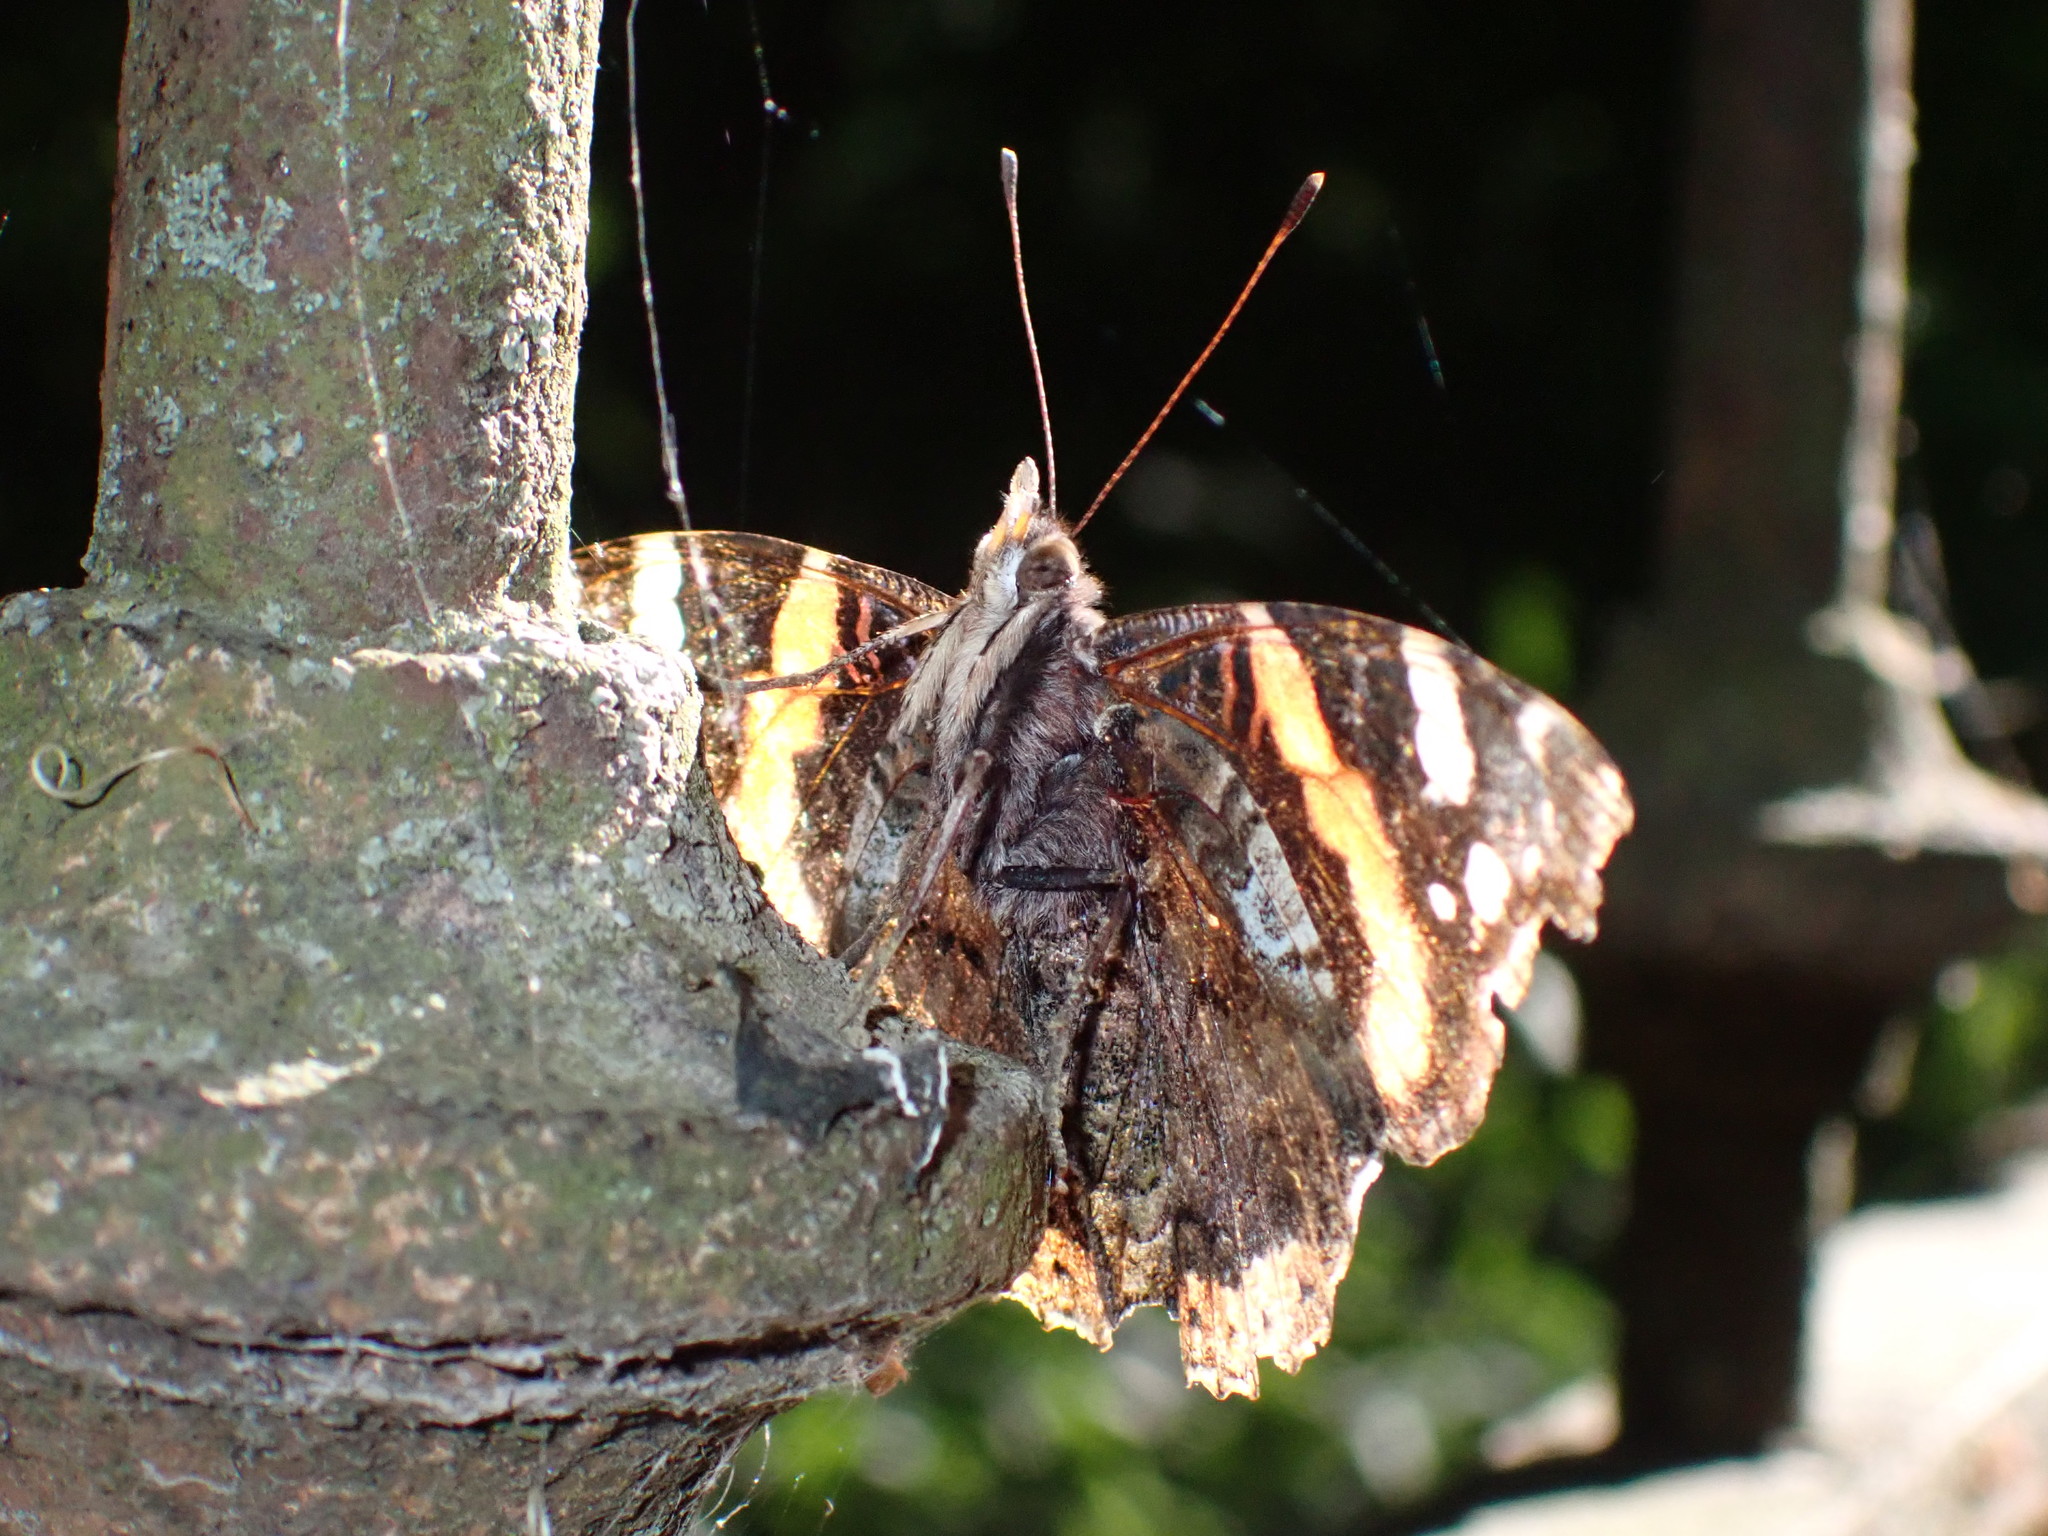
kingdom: Animalia
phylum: Arthropoda
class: Insecta
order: Lepidoptera
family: Nymphalidae
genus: Vanessa
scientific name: Vanessa atalanta
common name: Red admiral
